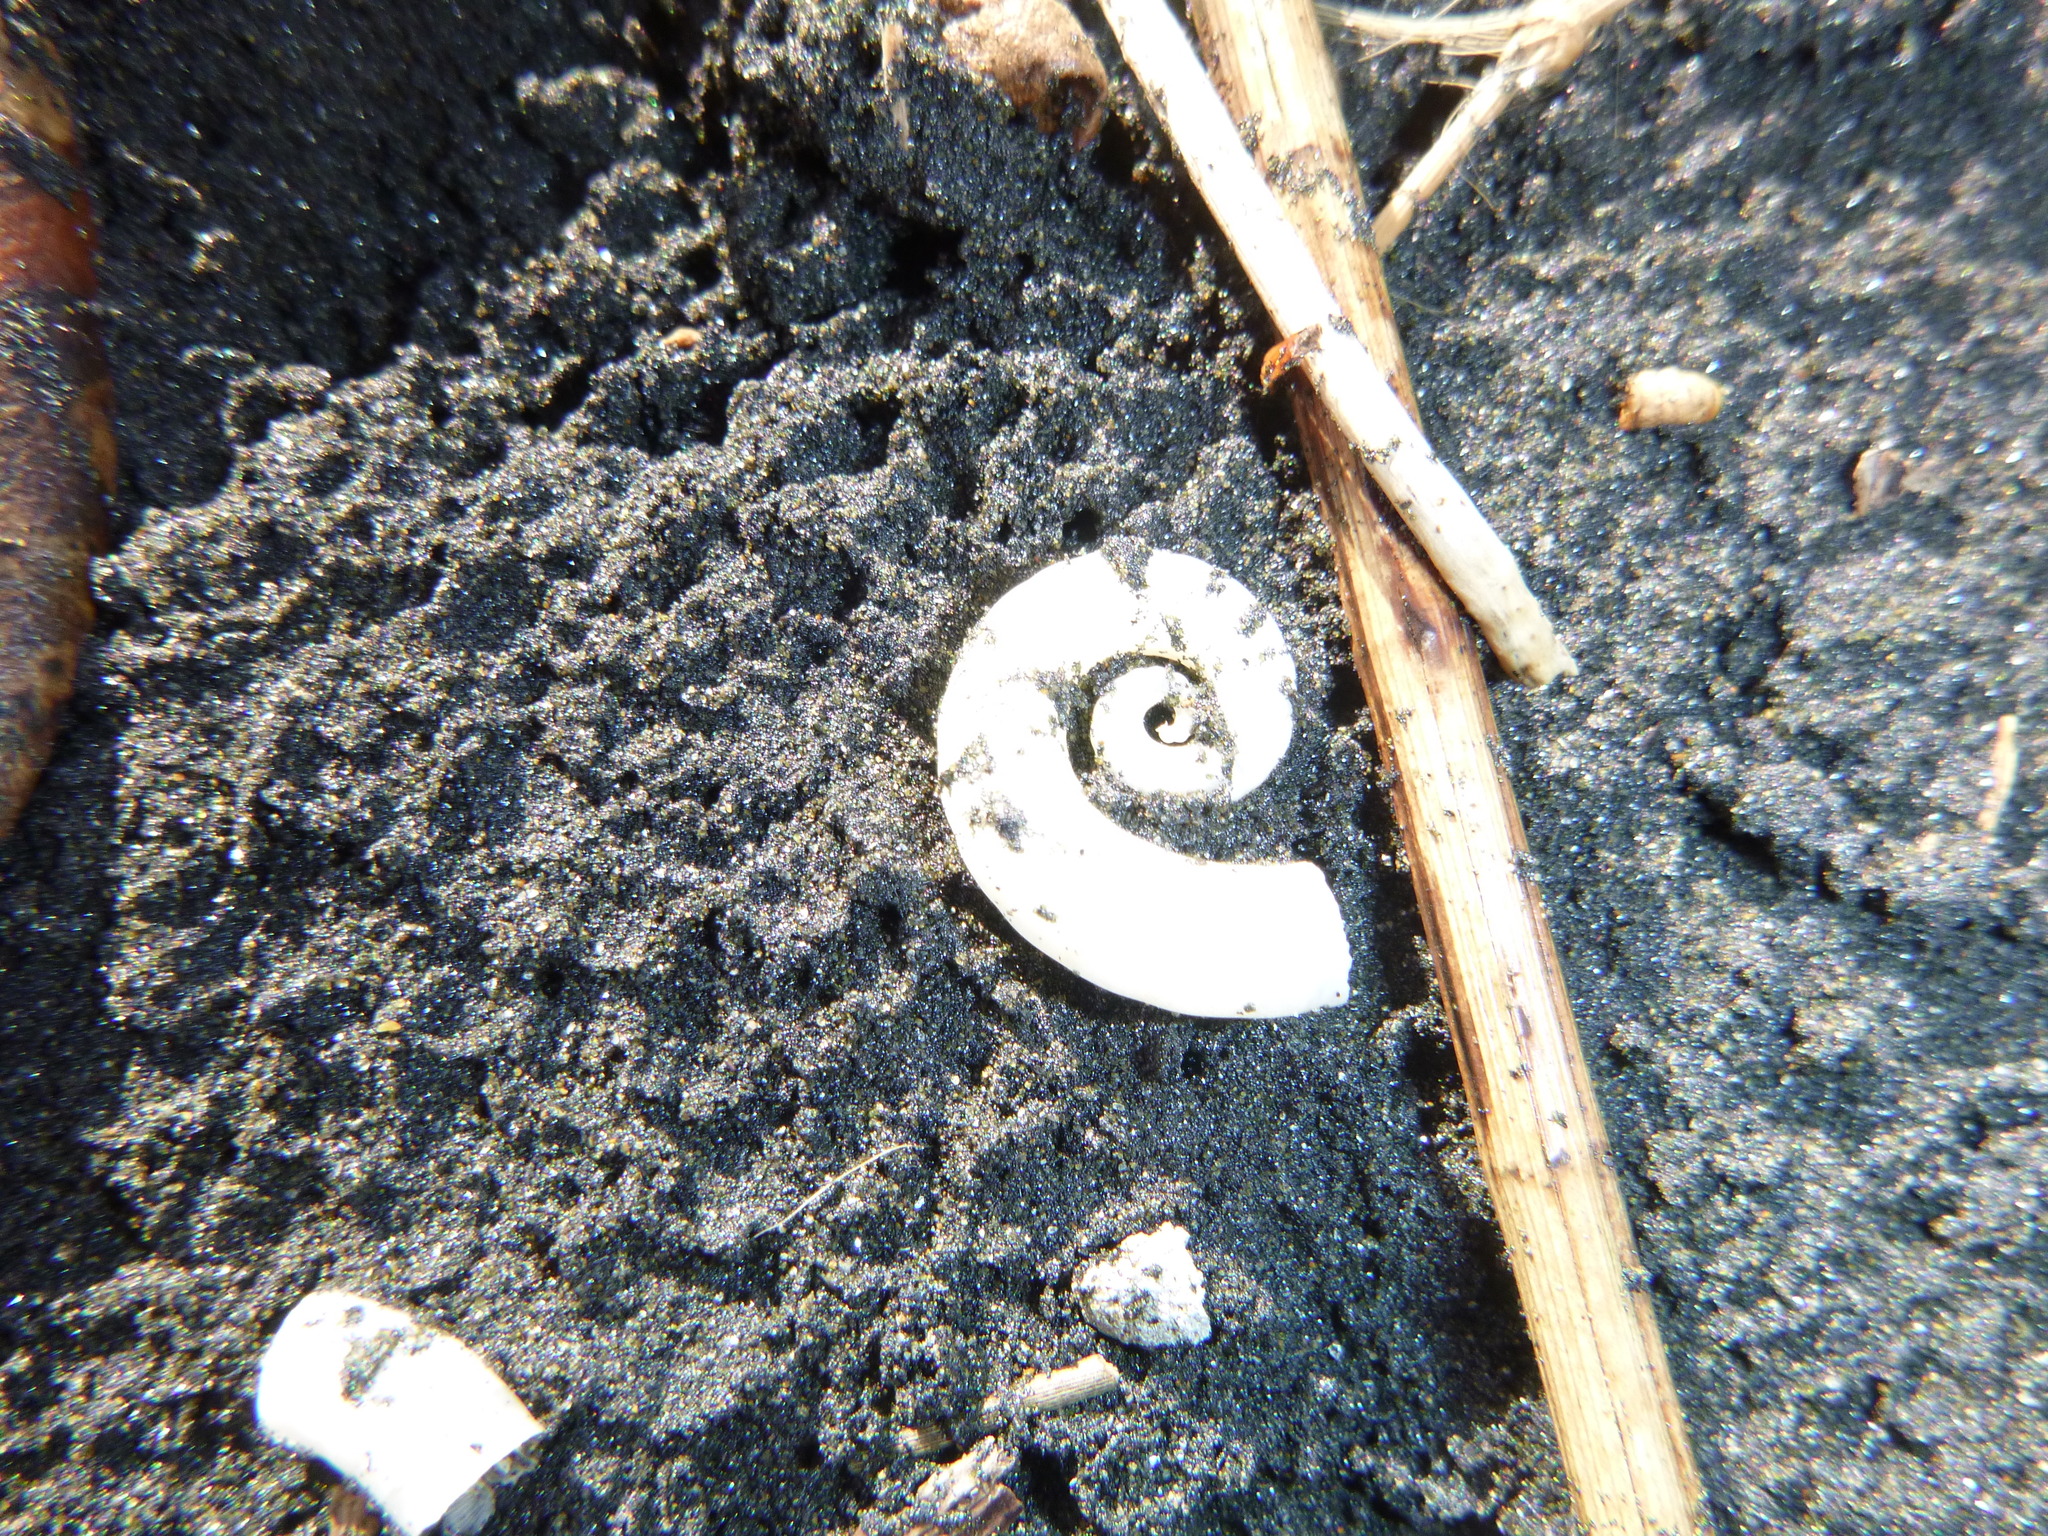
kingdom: Animalia
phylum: Mollusca
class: Cephalopoda
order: Spirulida
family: Spirulidae
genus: Spirula
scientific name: Spirula spirula
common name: Ram's horn squid
